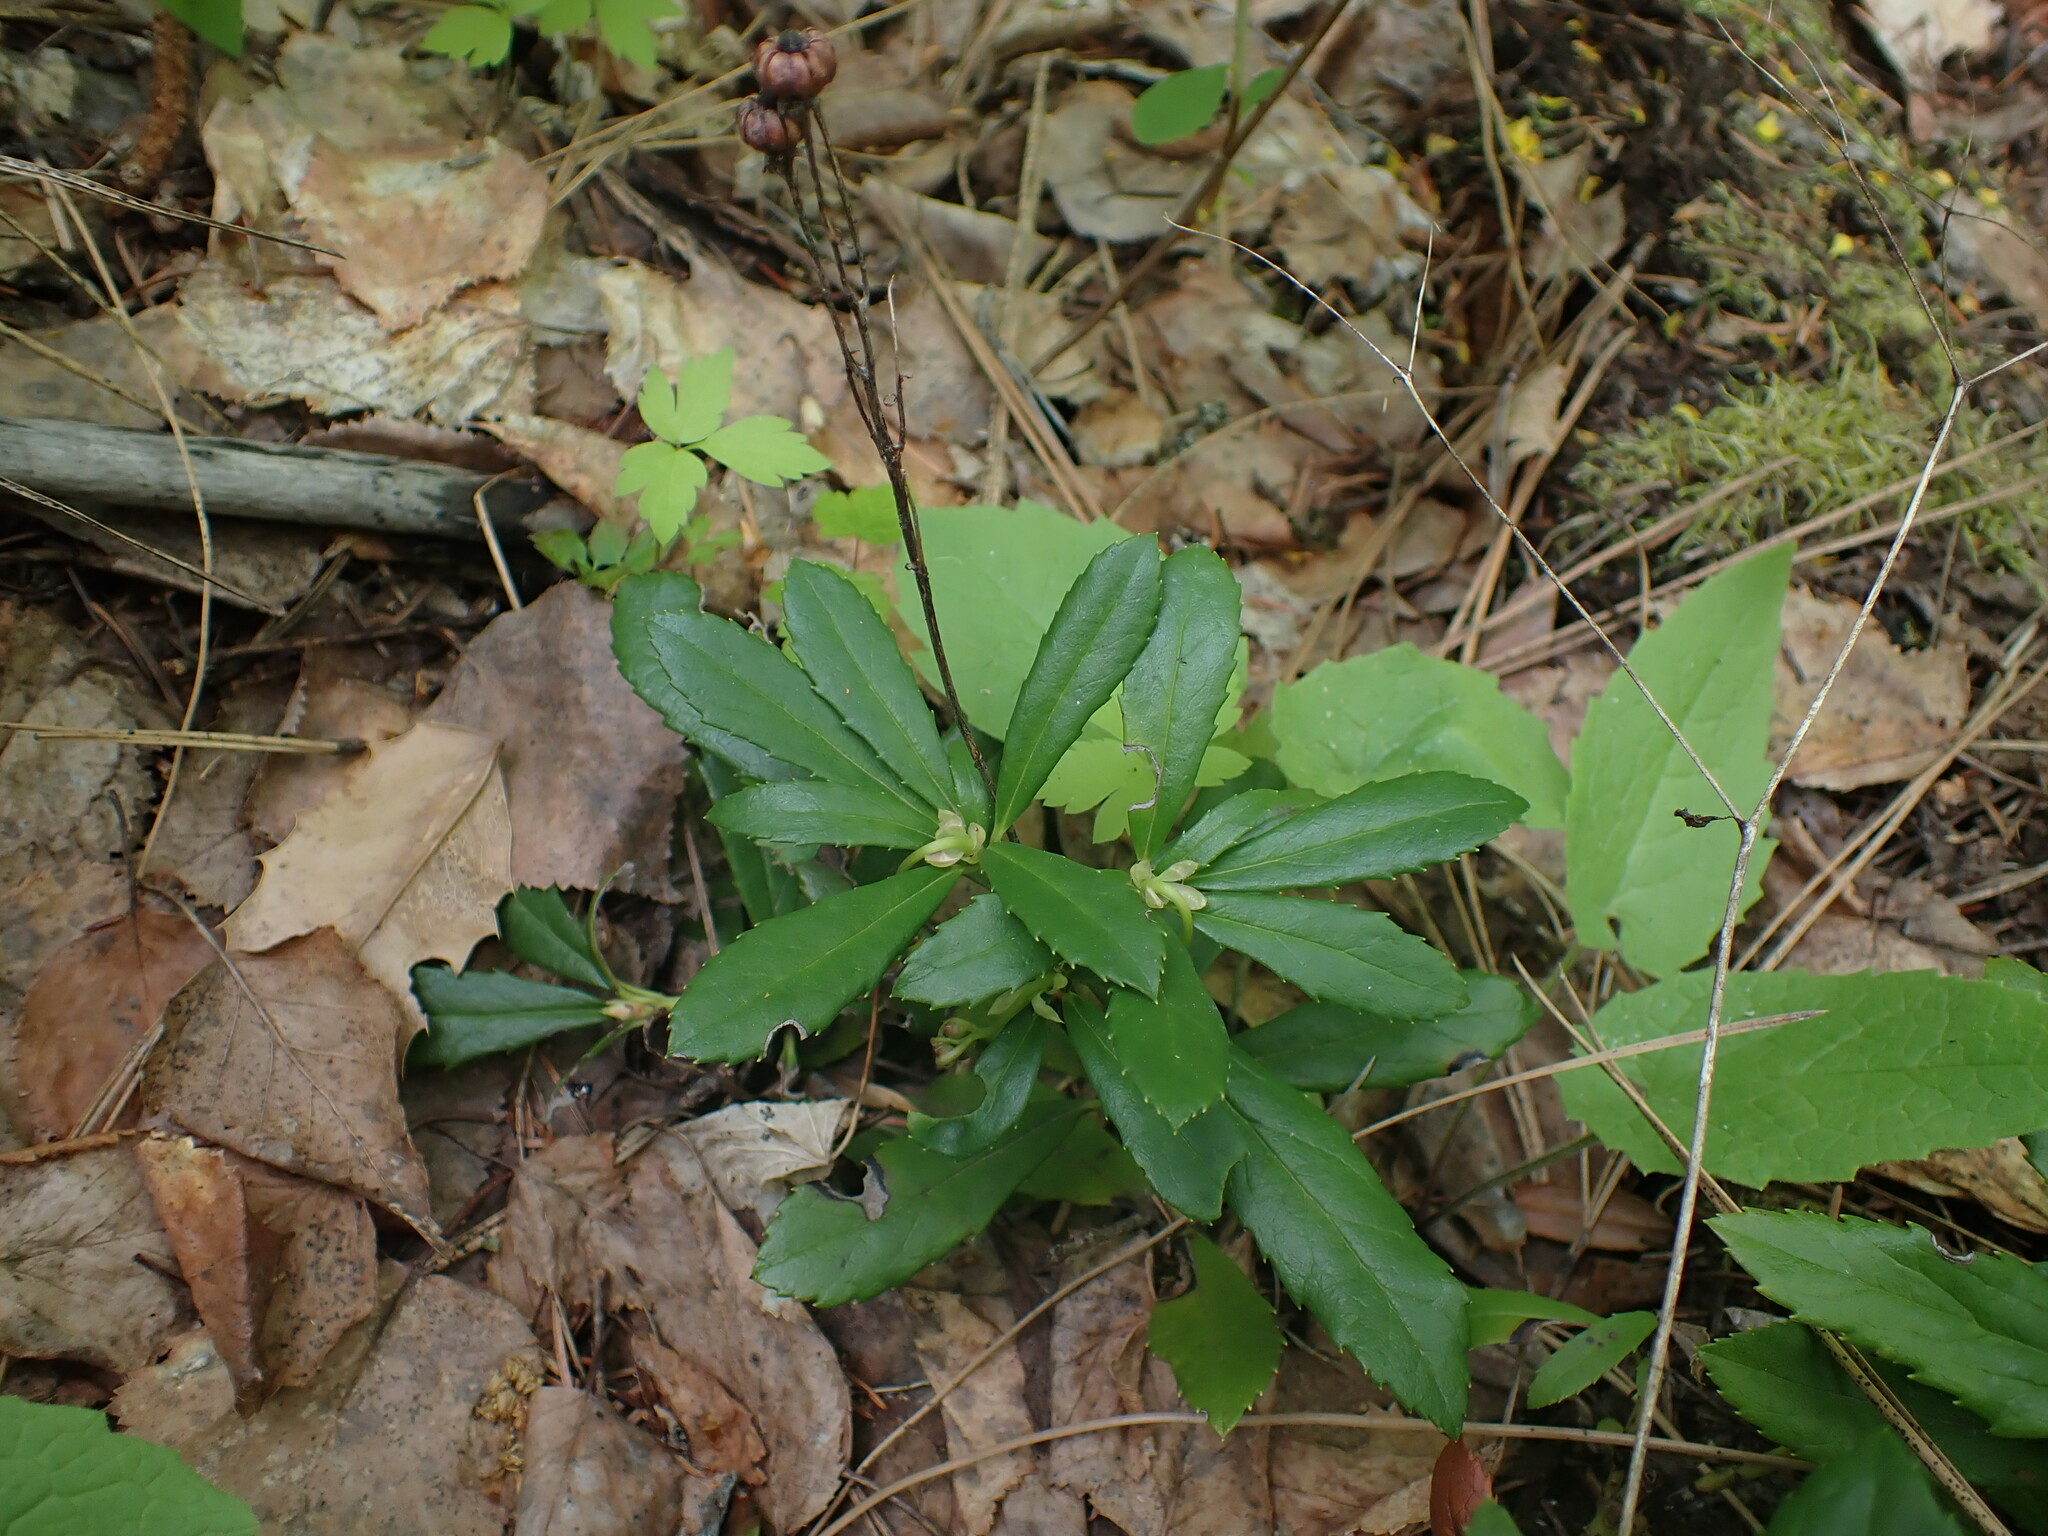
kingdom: Plantae
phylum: Tracheophyta
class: Magnoliopsida
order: Ericales
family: Ericaceae
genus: Chimaphila
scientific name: Chimaphila umbellata
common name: Pipsissewa
